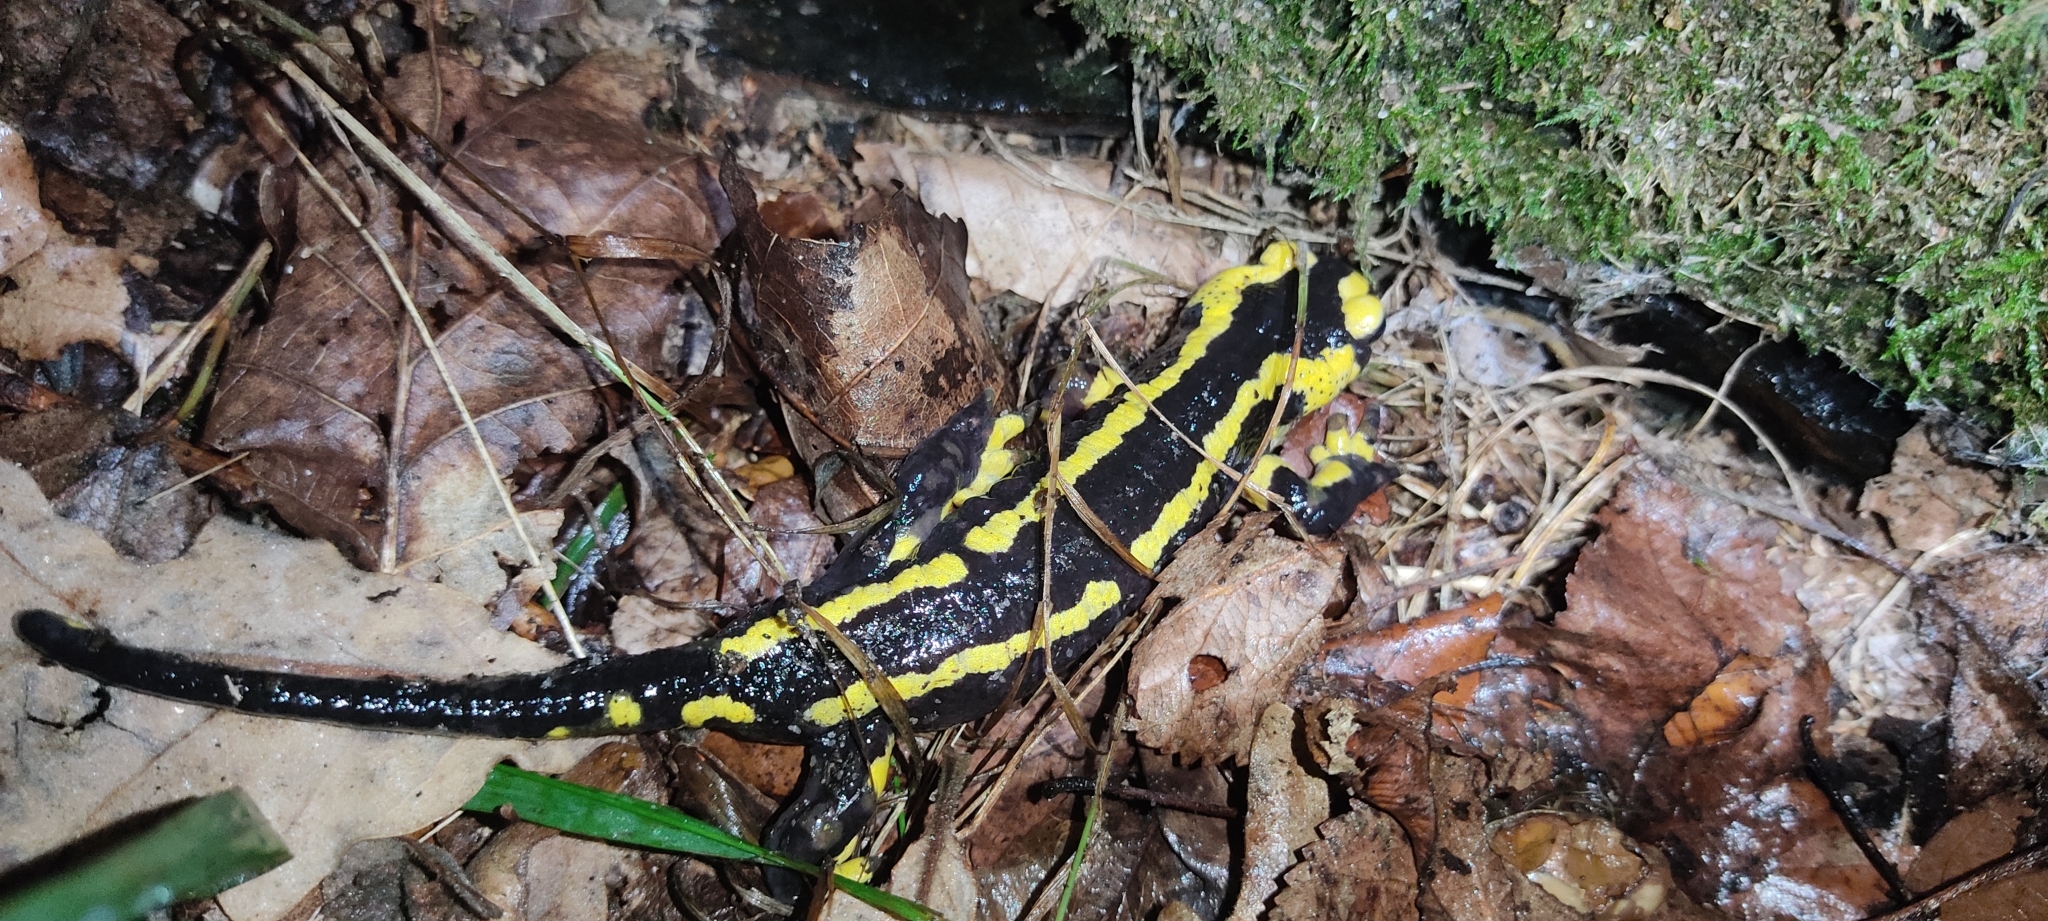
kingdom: Animalia
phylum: Chordata
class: Amphibia
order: Caudata
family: Salamandridae
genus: Salamandra
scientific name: Salamandra salamandra
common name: Fire salamander
